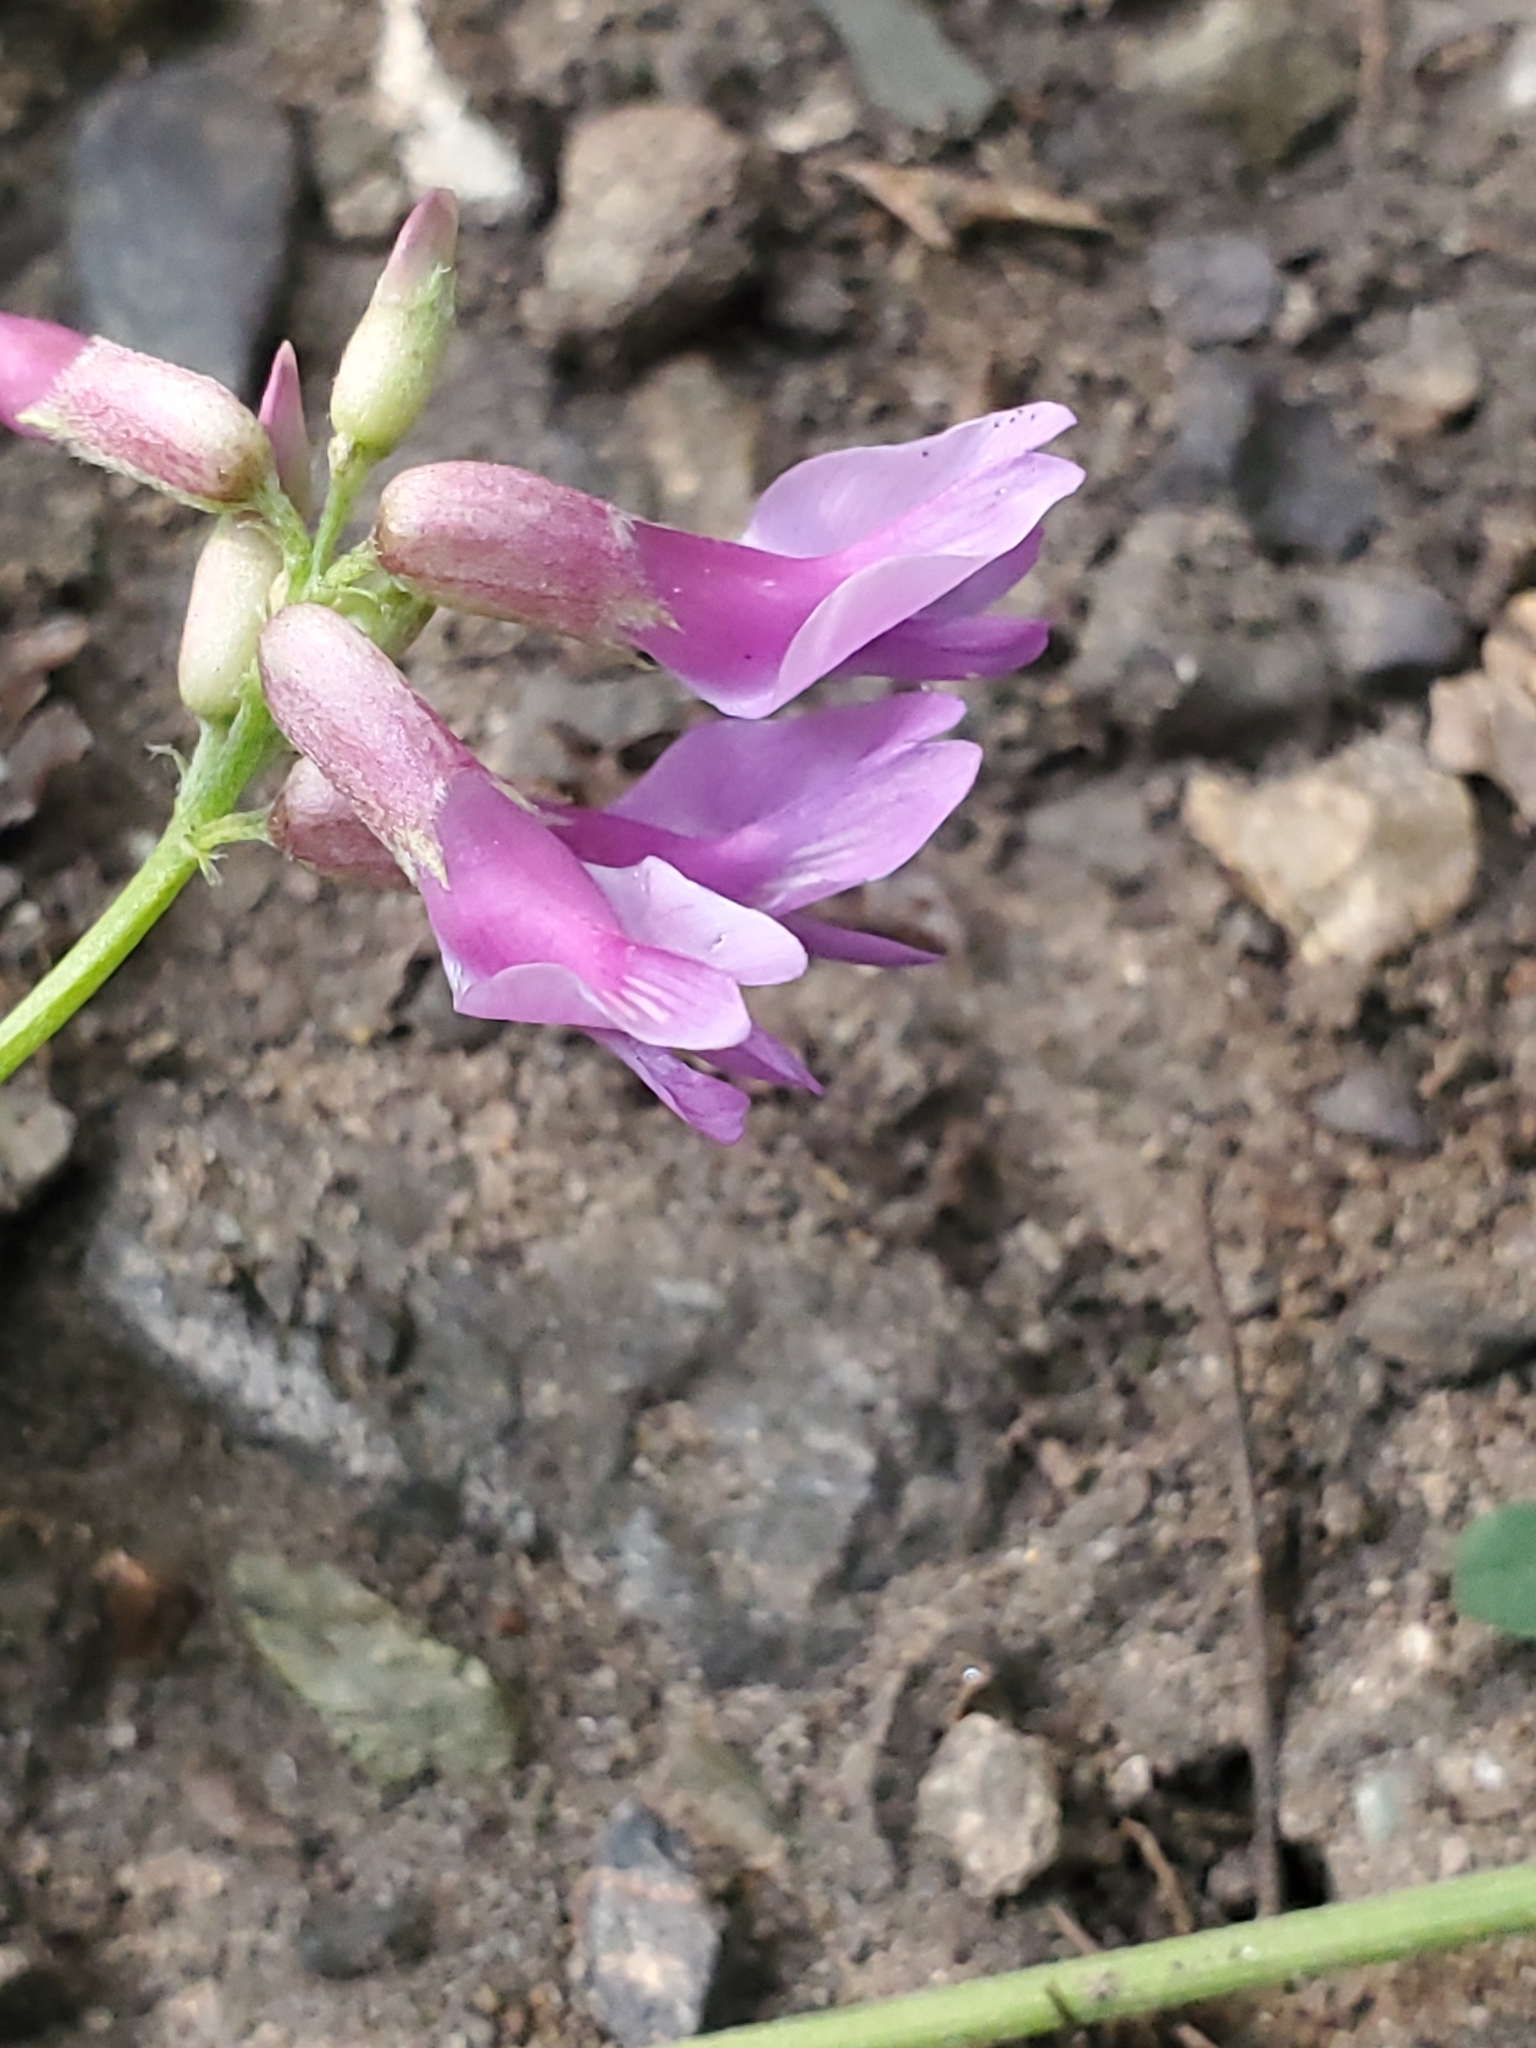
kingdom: Plantae
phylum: Tracheophyta
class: Magnoliopsida
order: Fabales
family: Fabaceae
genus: Astragalus
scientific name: Astragalus hallii
